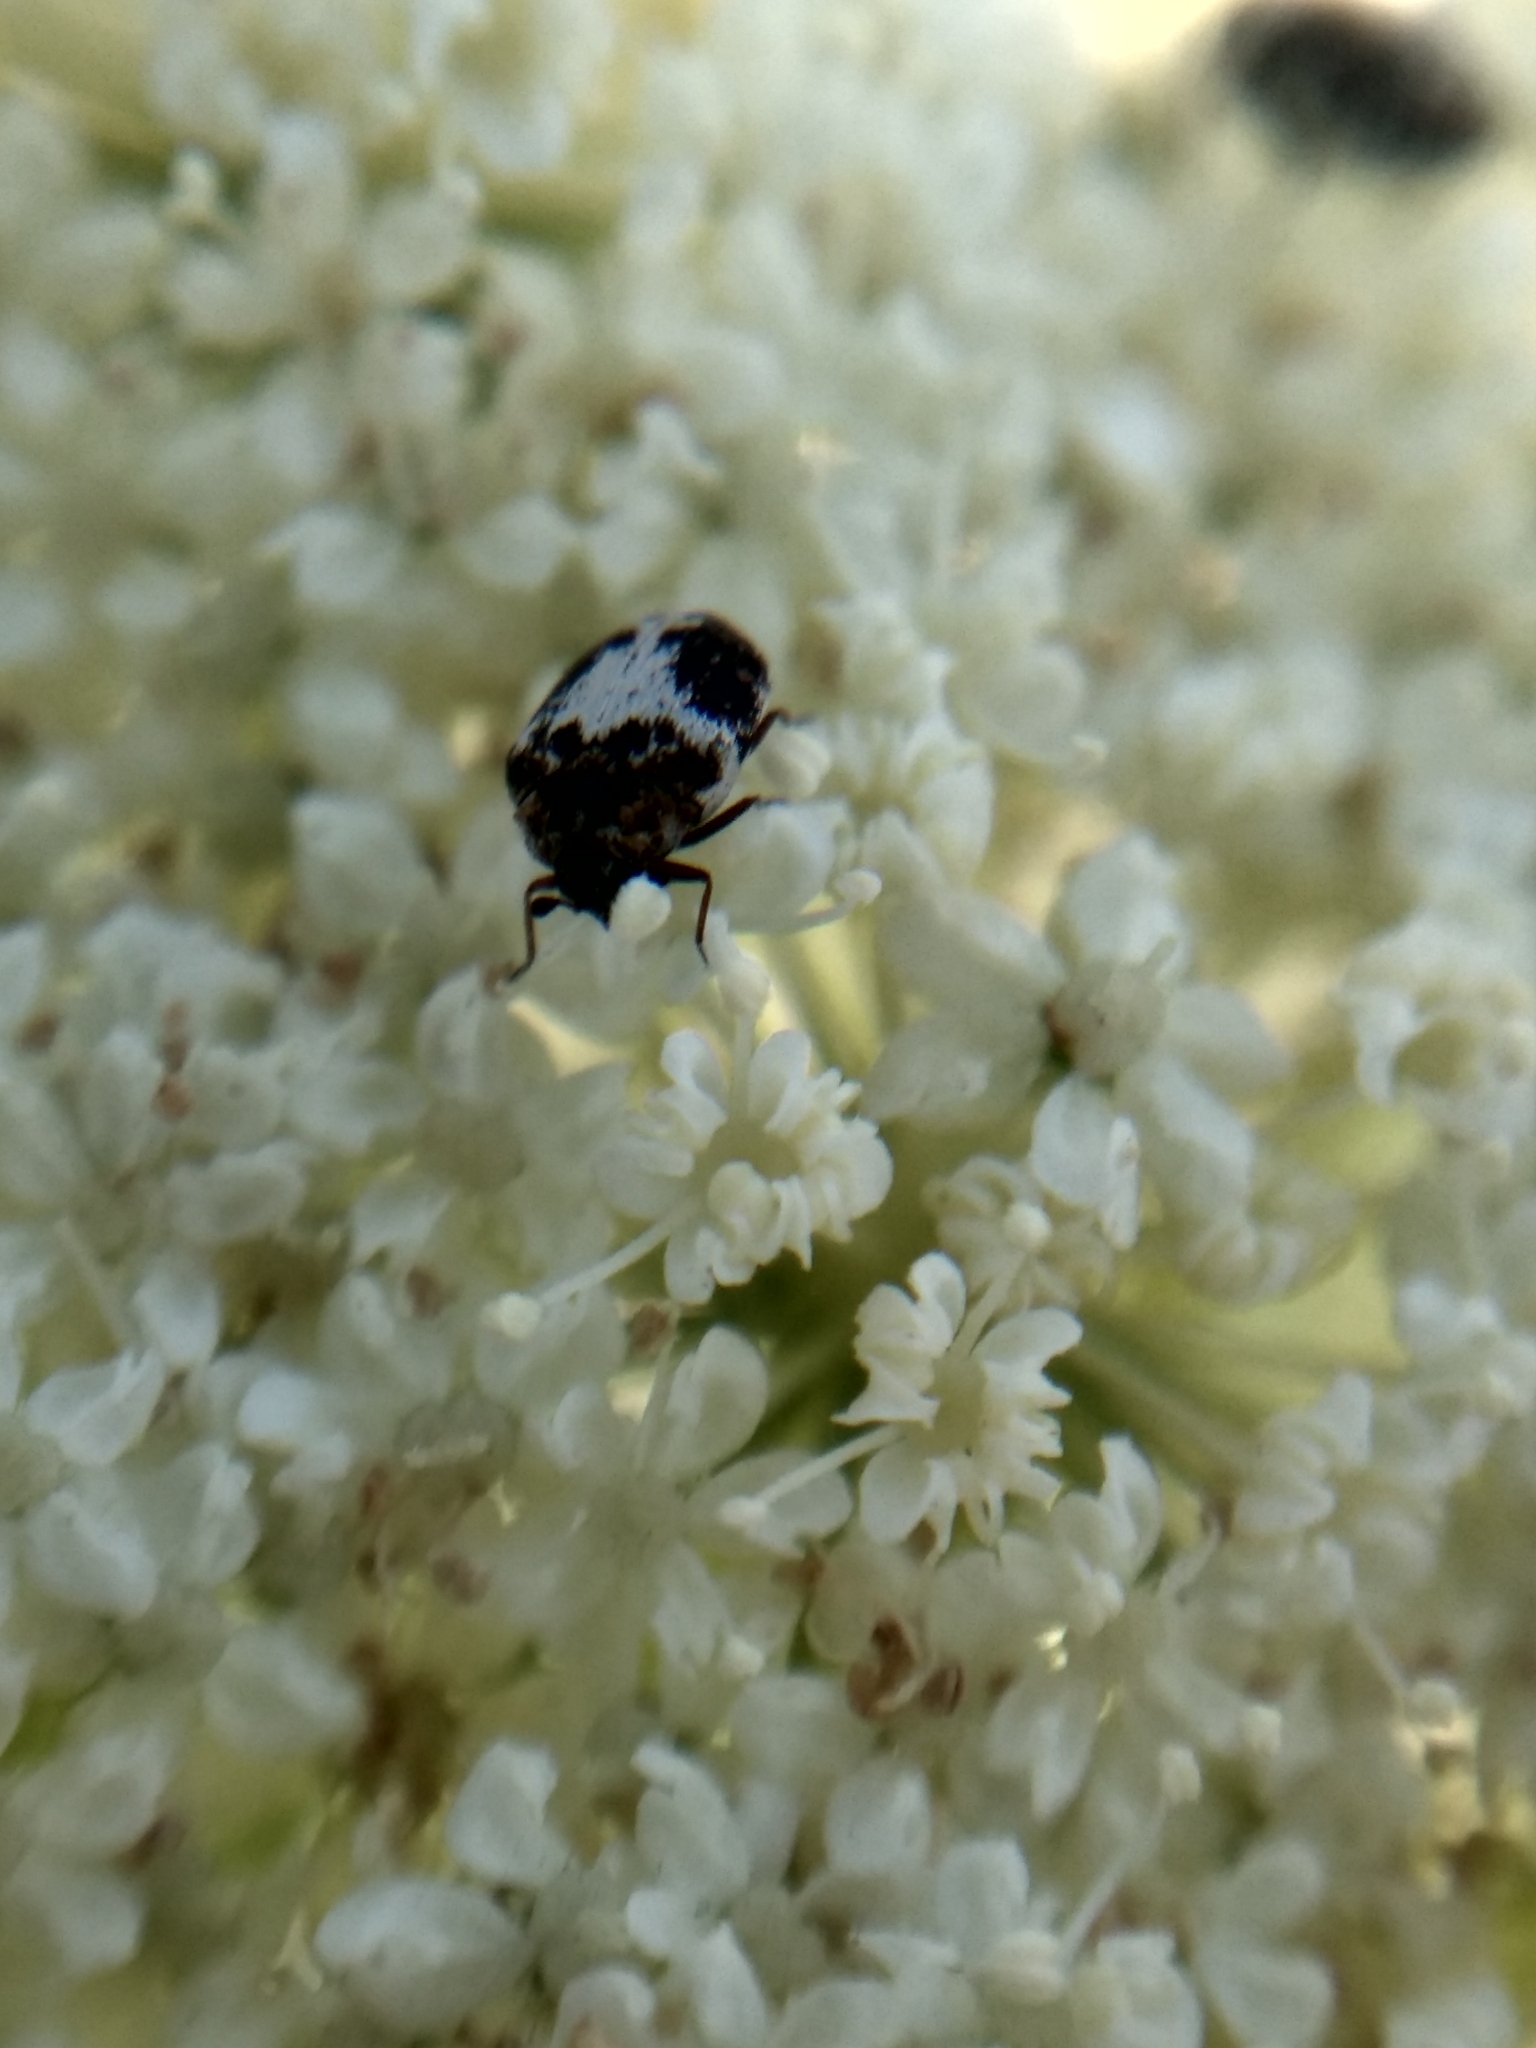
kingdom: Animalia
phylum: Arthropoda
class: Insecta
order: Coleoptera
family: Dermestidae
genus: Anthrenus
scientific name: Anthrenus sophonisba
